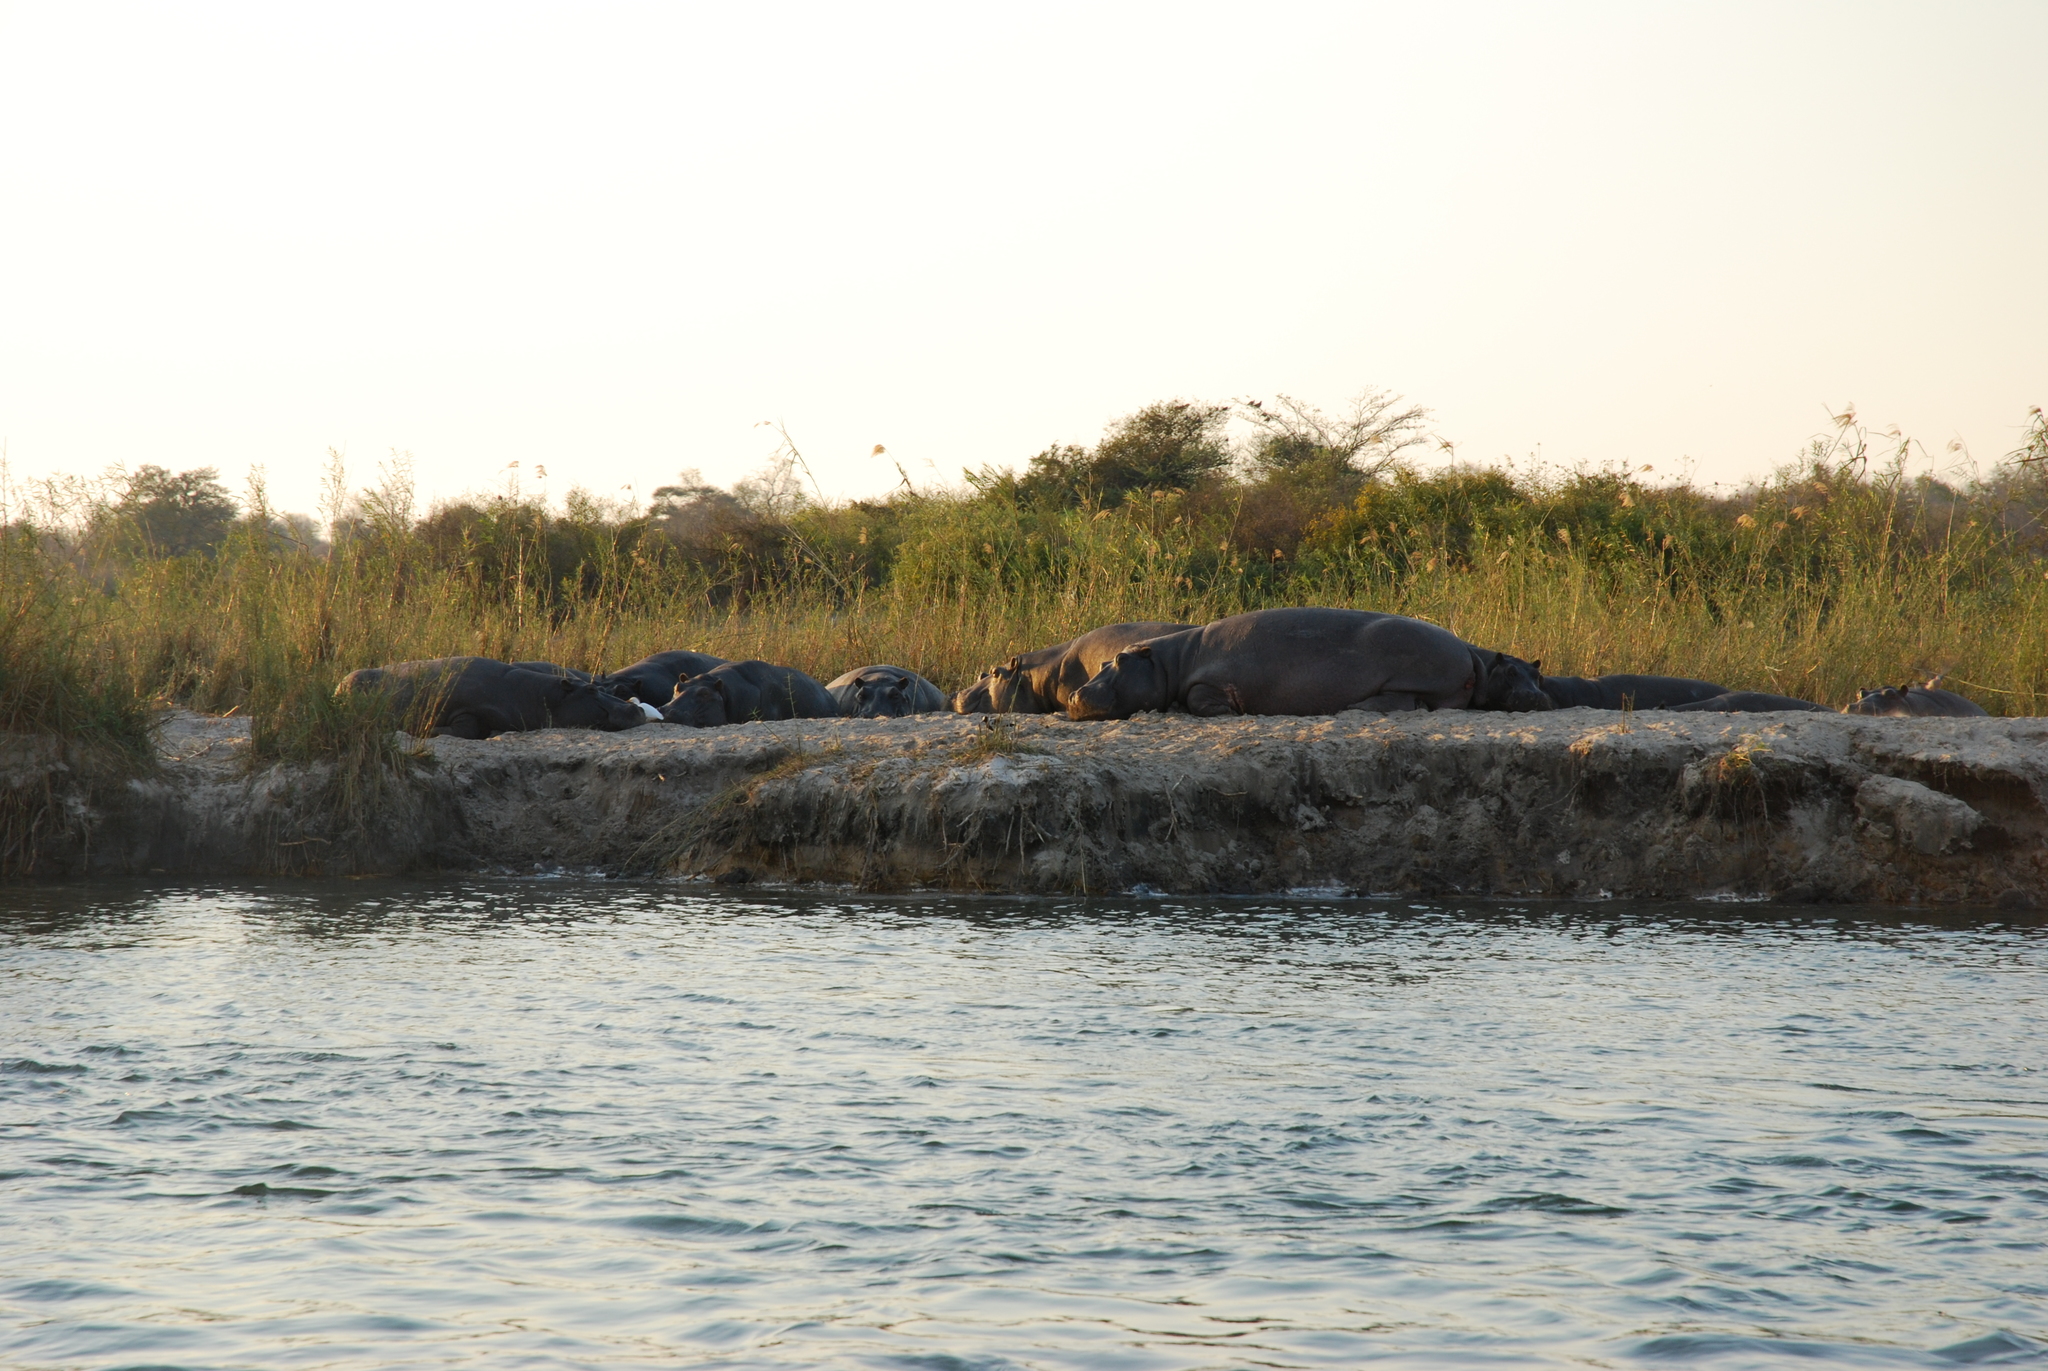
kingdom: Animalia
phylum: Chordata
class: Mammalia
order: Artiodactyla
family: Hippopotamidae
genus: Hippopotamus
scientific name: Hippopotamus amphibius
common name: Common hippopotamus
